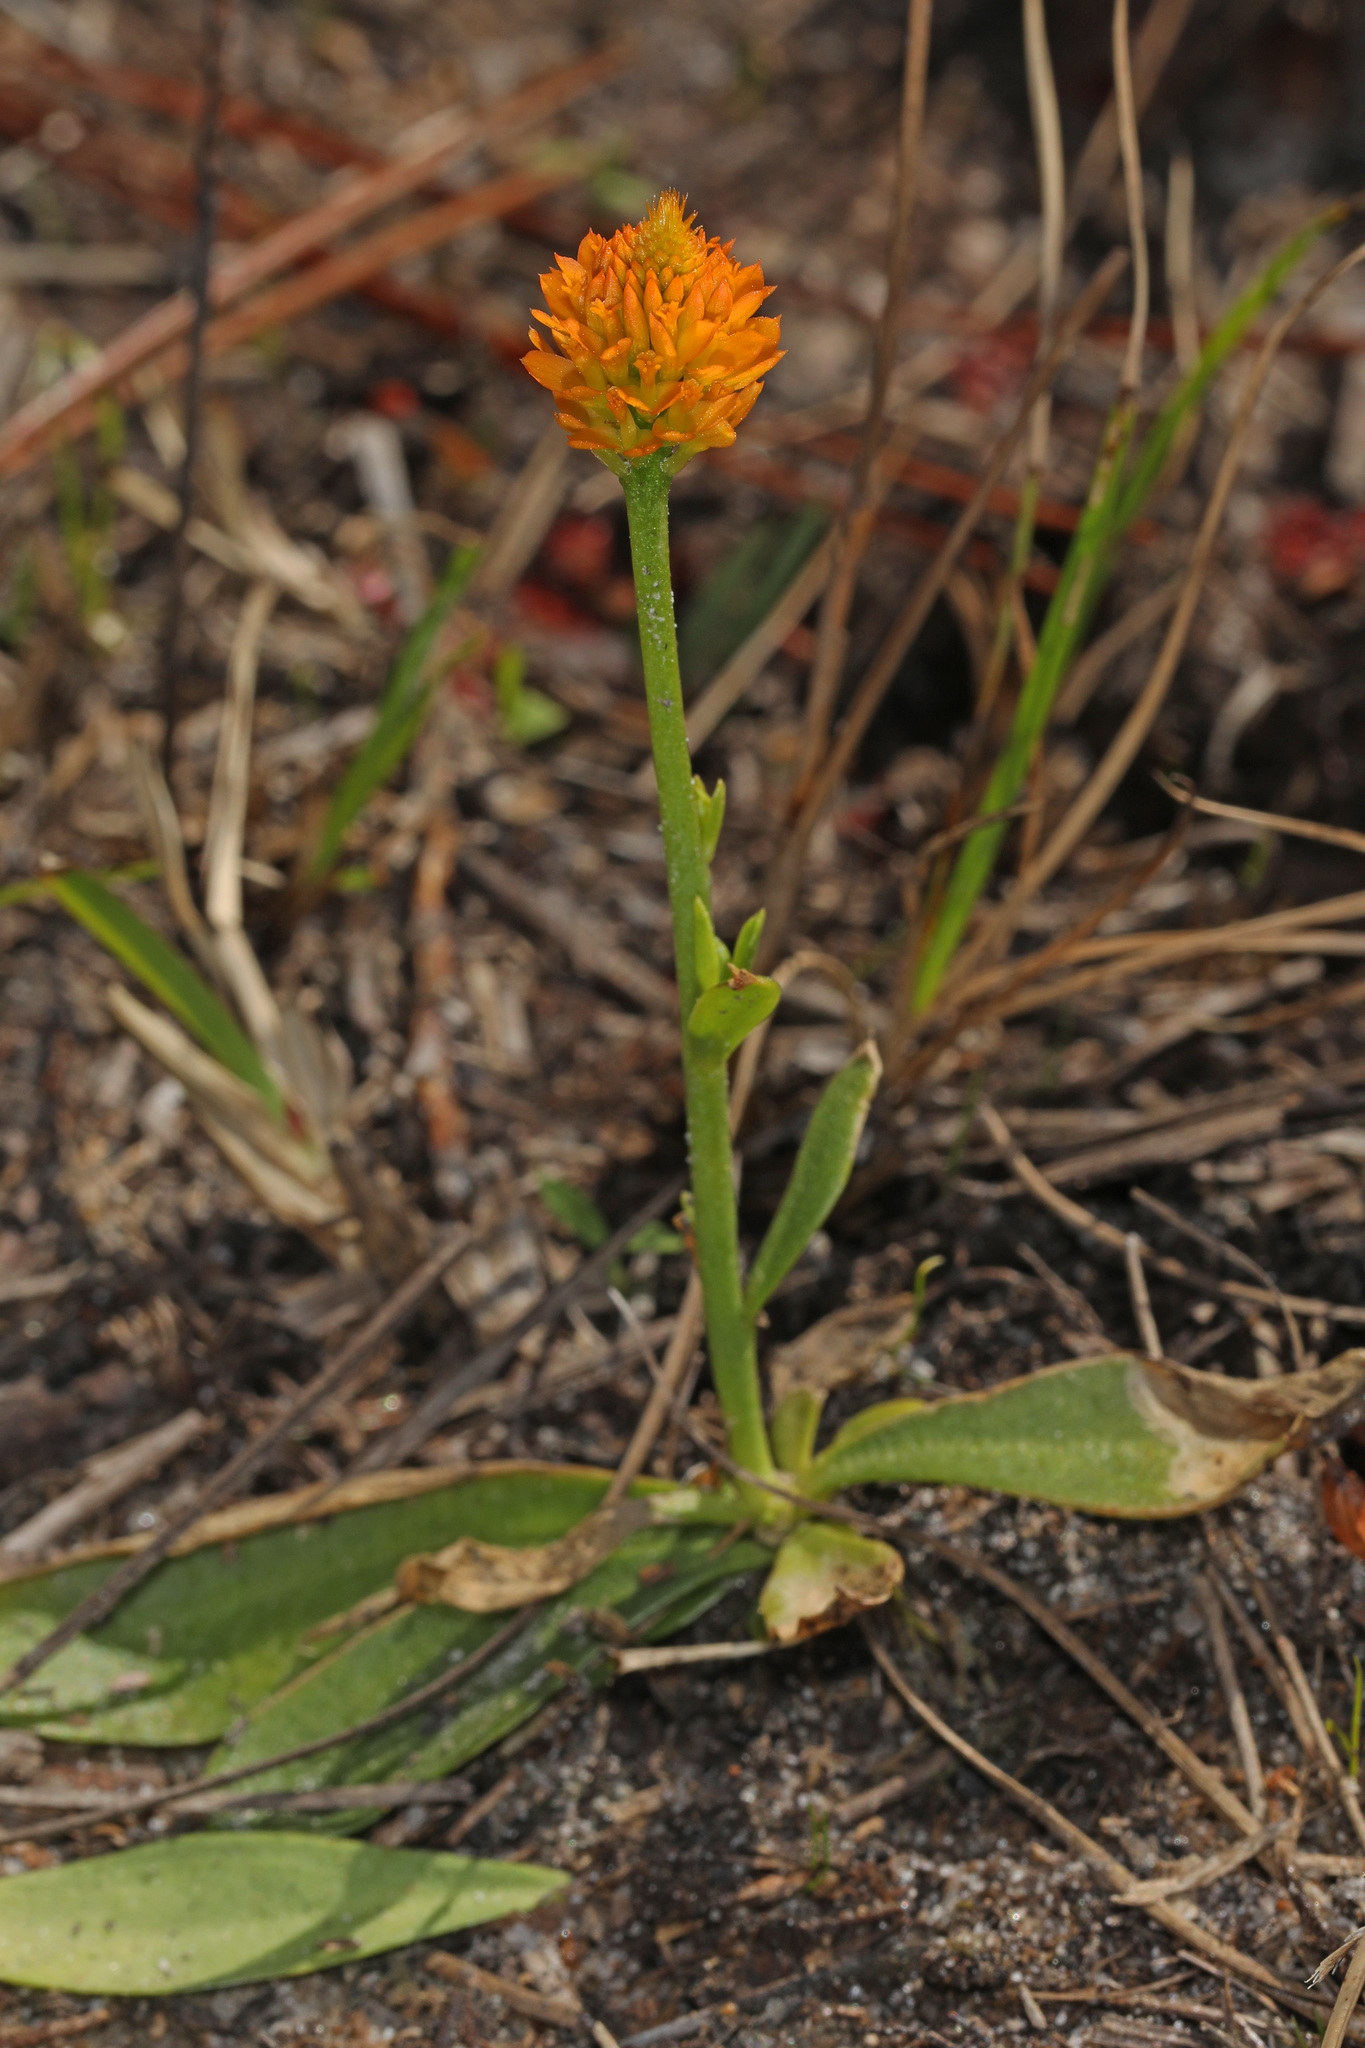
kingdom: Plantae
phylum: Tracheophyta
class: Magnoliopsida
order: Fabales
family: Polygalaceae
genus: Polygala
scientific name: Polygala lutea
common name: Orange milkwort
